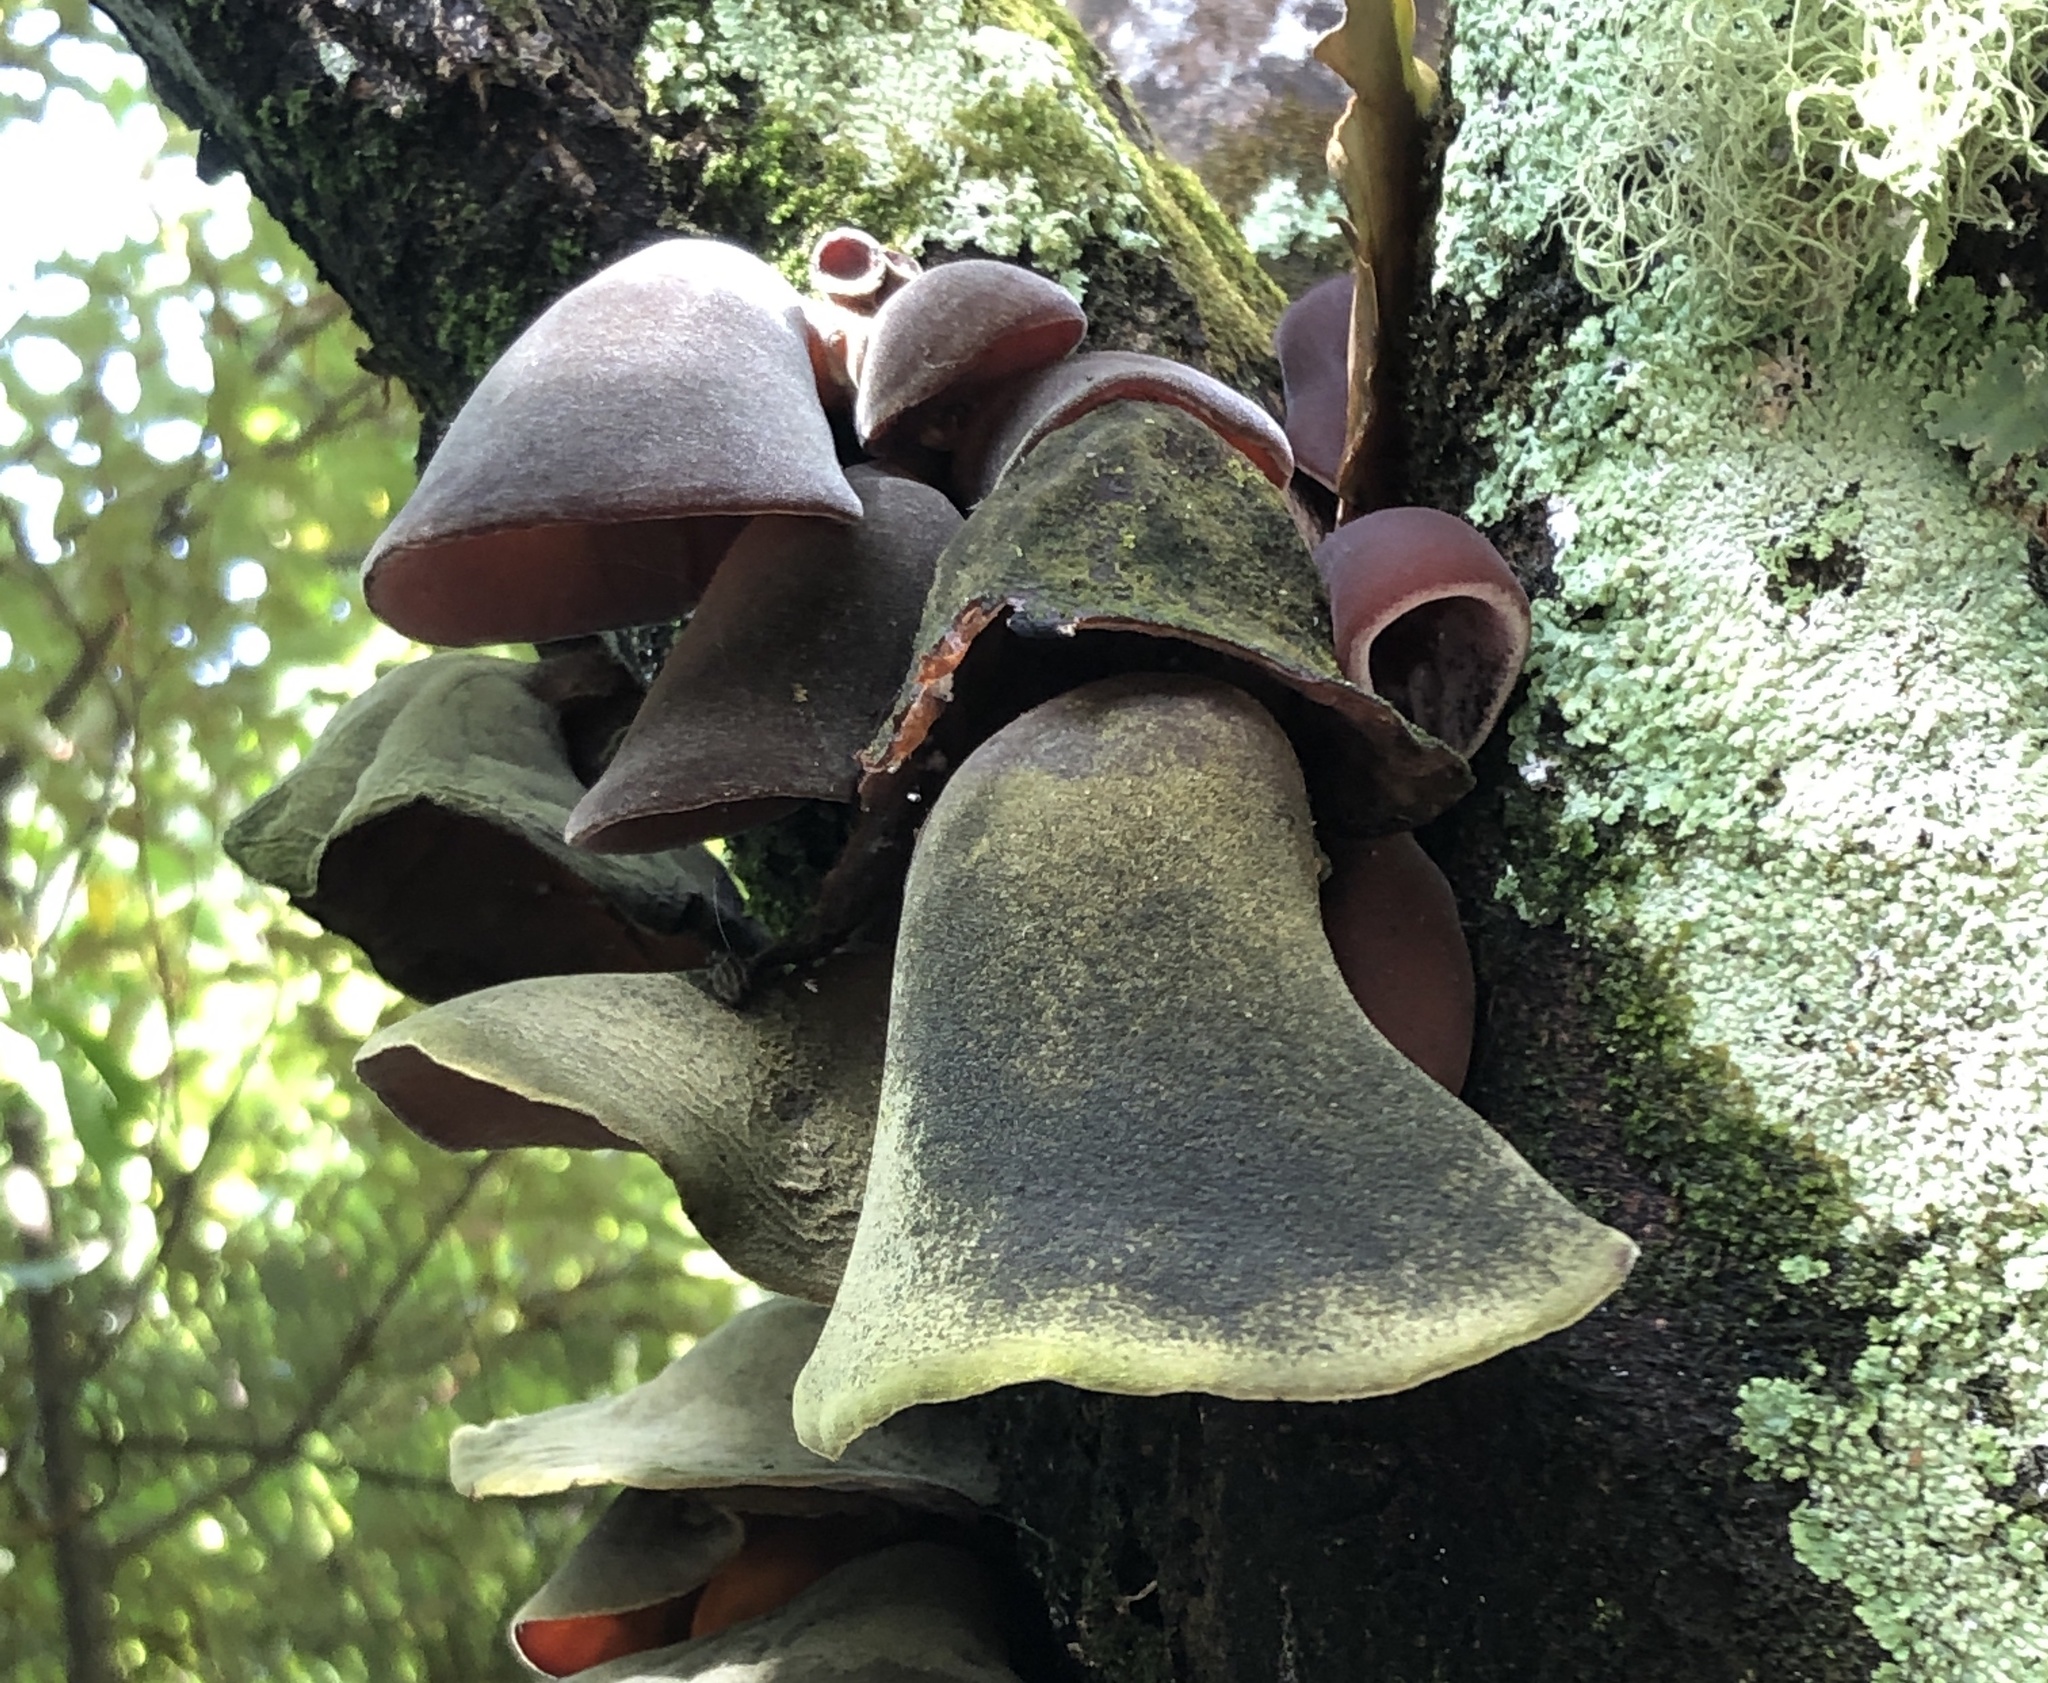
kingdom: Fungi
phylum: Basidiomycota
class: Agaricomycetes
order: Auriculariales
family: Auriculariaceae
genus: Auricularia
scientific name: Auricularia cornea
